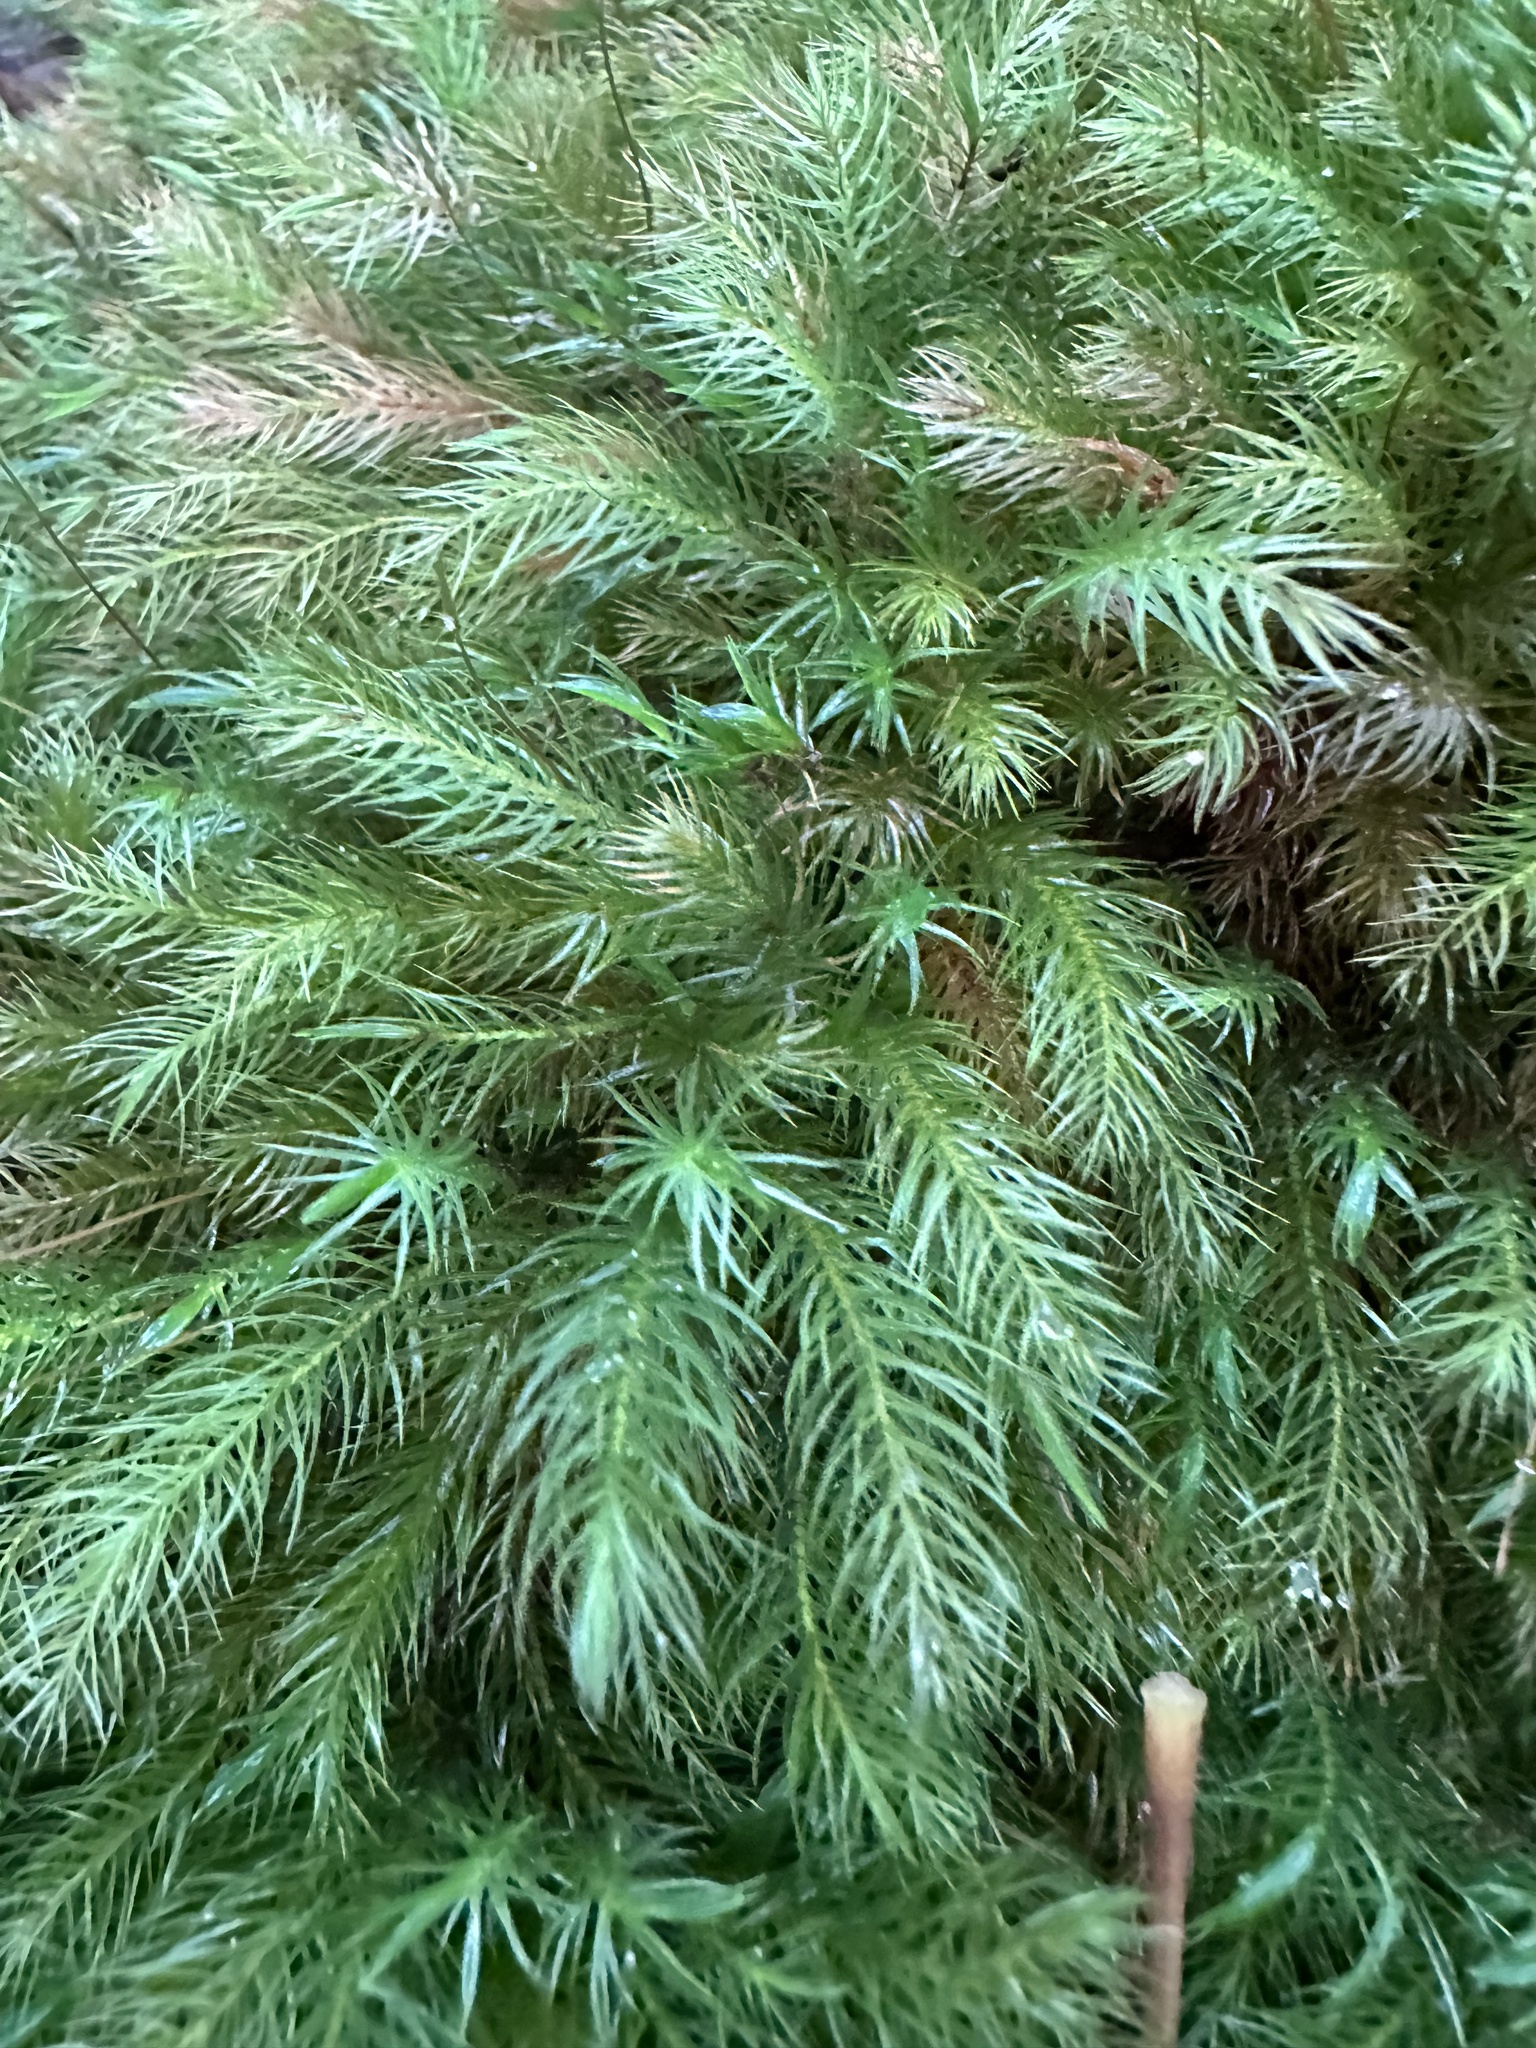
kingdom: Plantae
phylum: Bryophyta
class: Bryopsida
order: Rhizogoniales
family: Calomniaceae
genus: Pyrrhobryum
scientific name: Pyrrhobryum spiniforme
